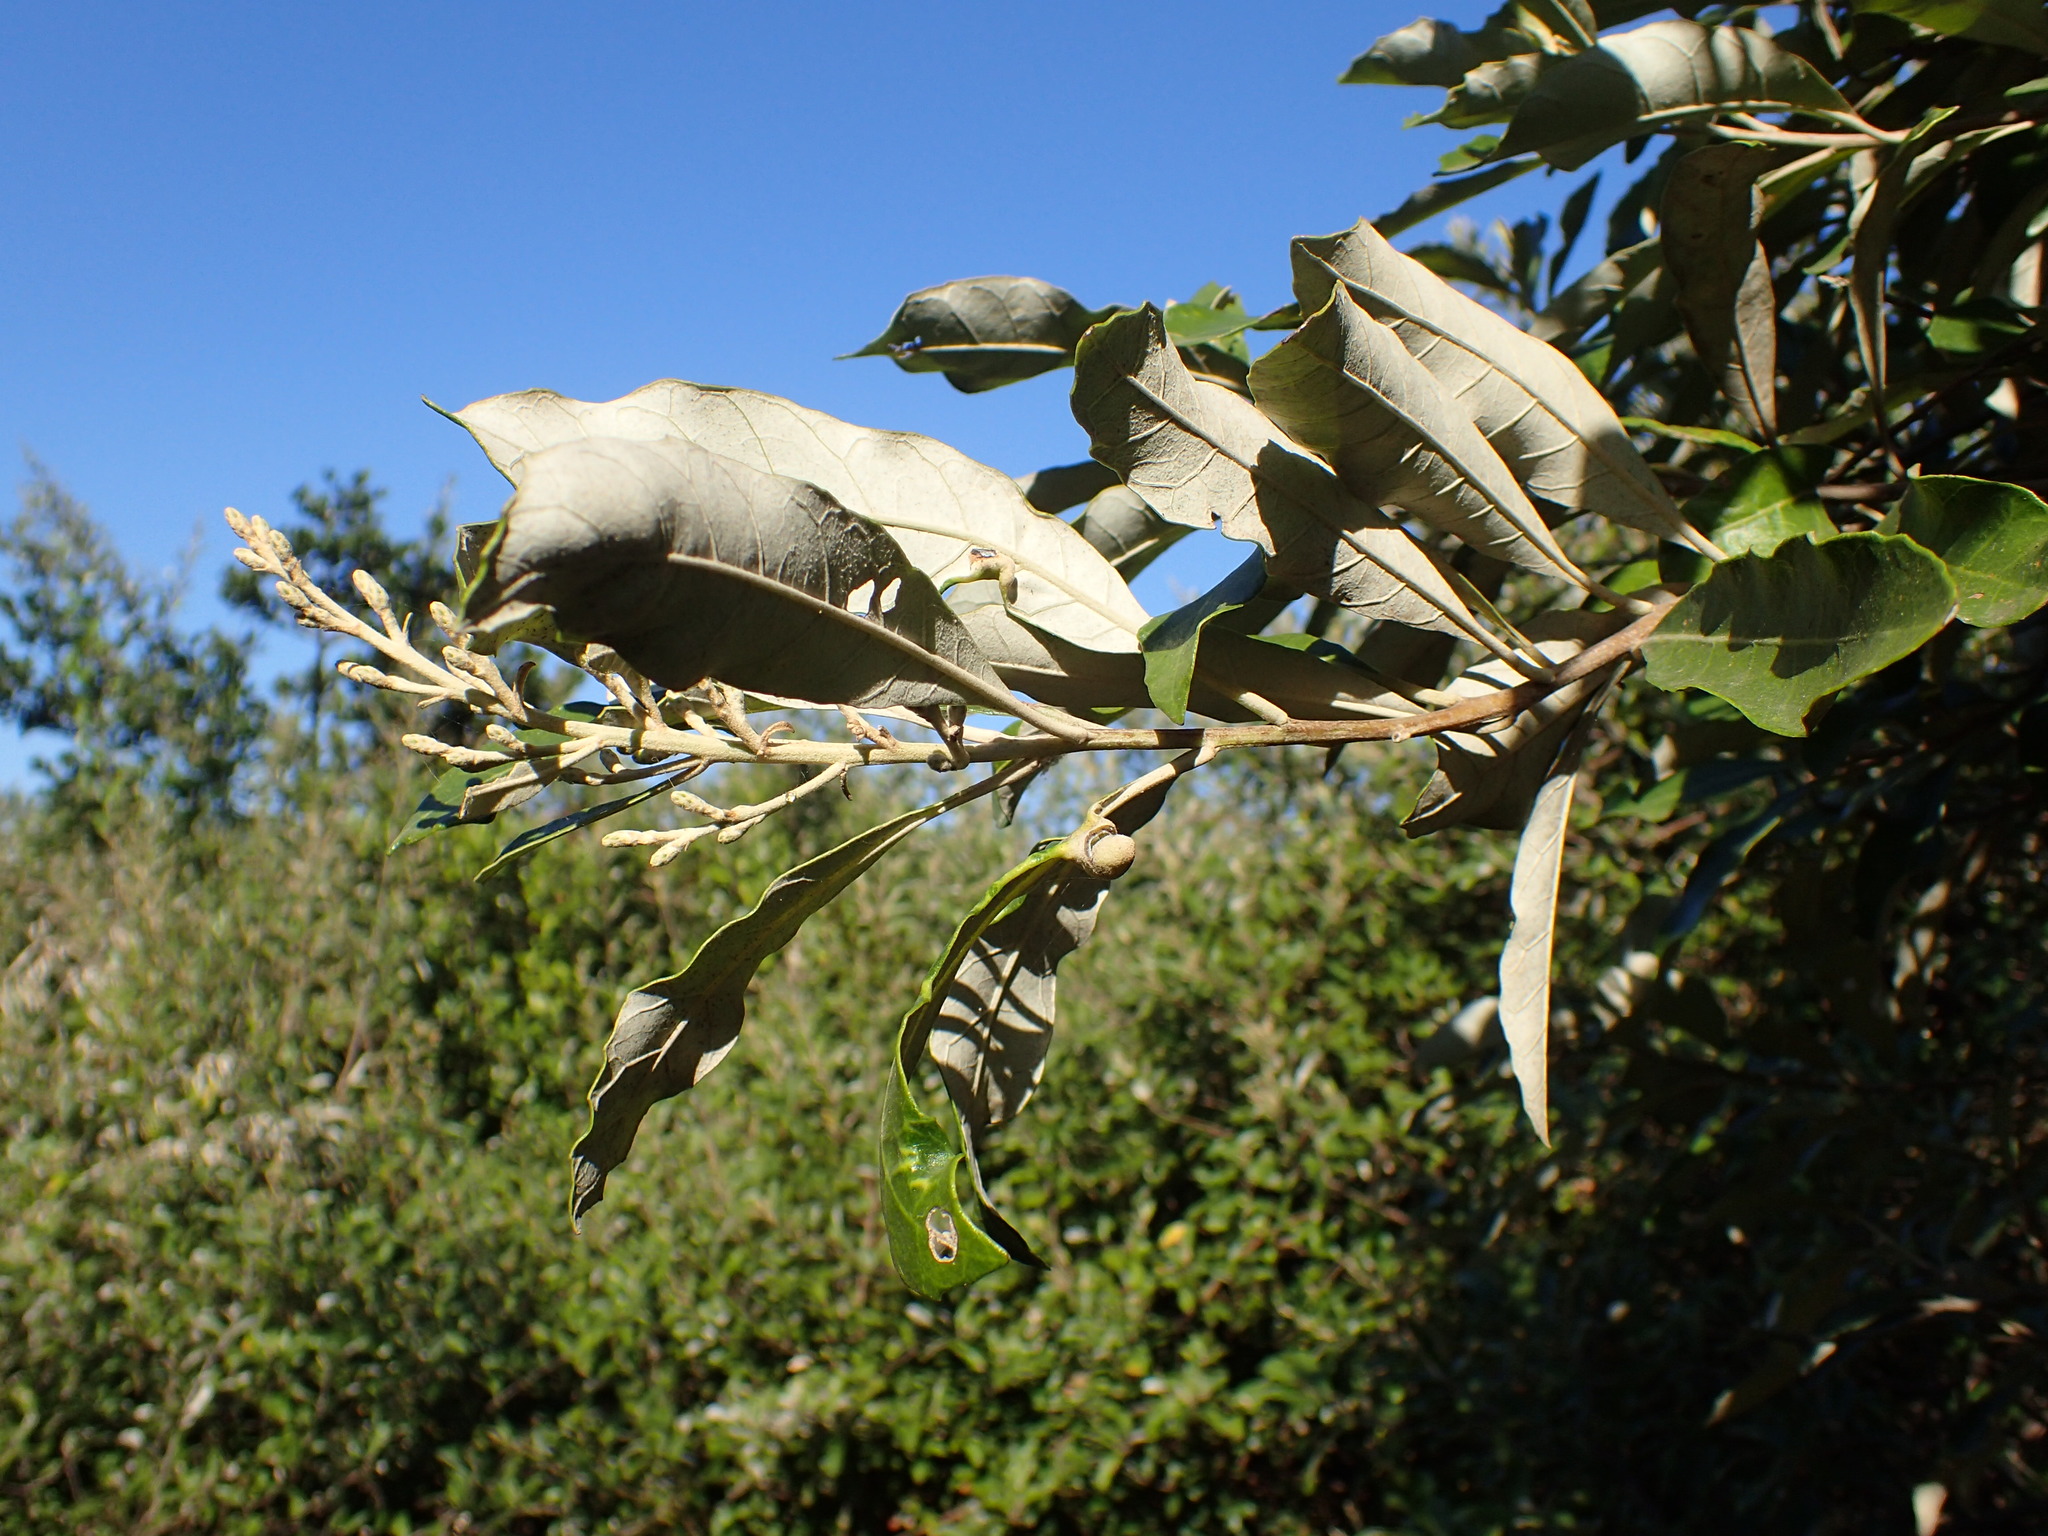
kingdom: Plantae
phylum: Tracheophyta
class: Magnoliopsida
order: Asterales
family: Asteraceae
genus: Brachylaena
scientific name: Brachylaena discolor
